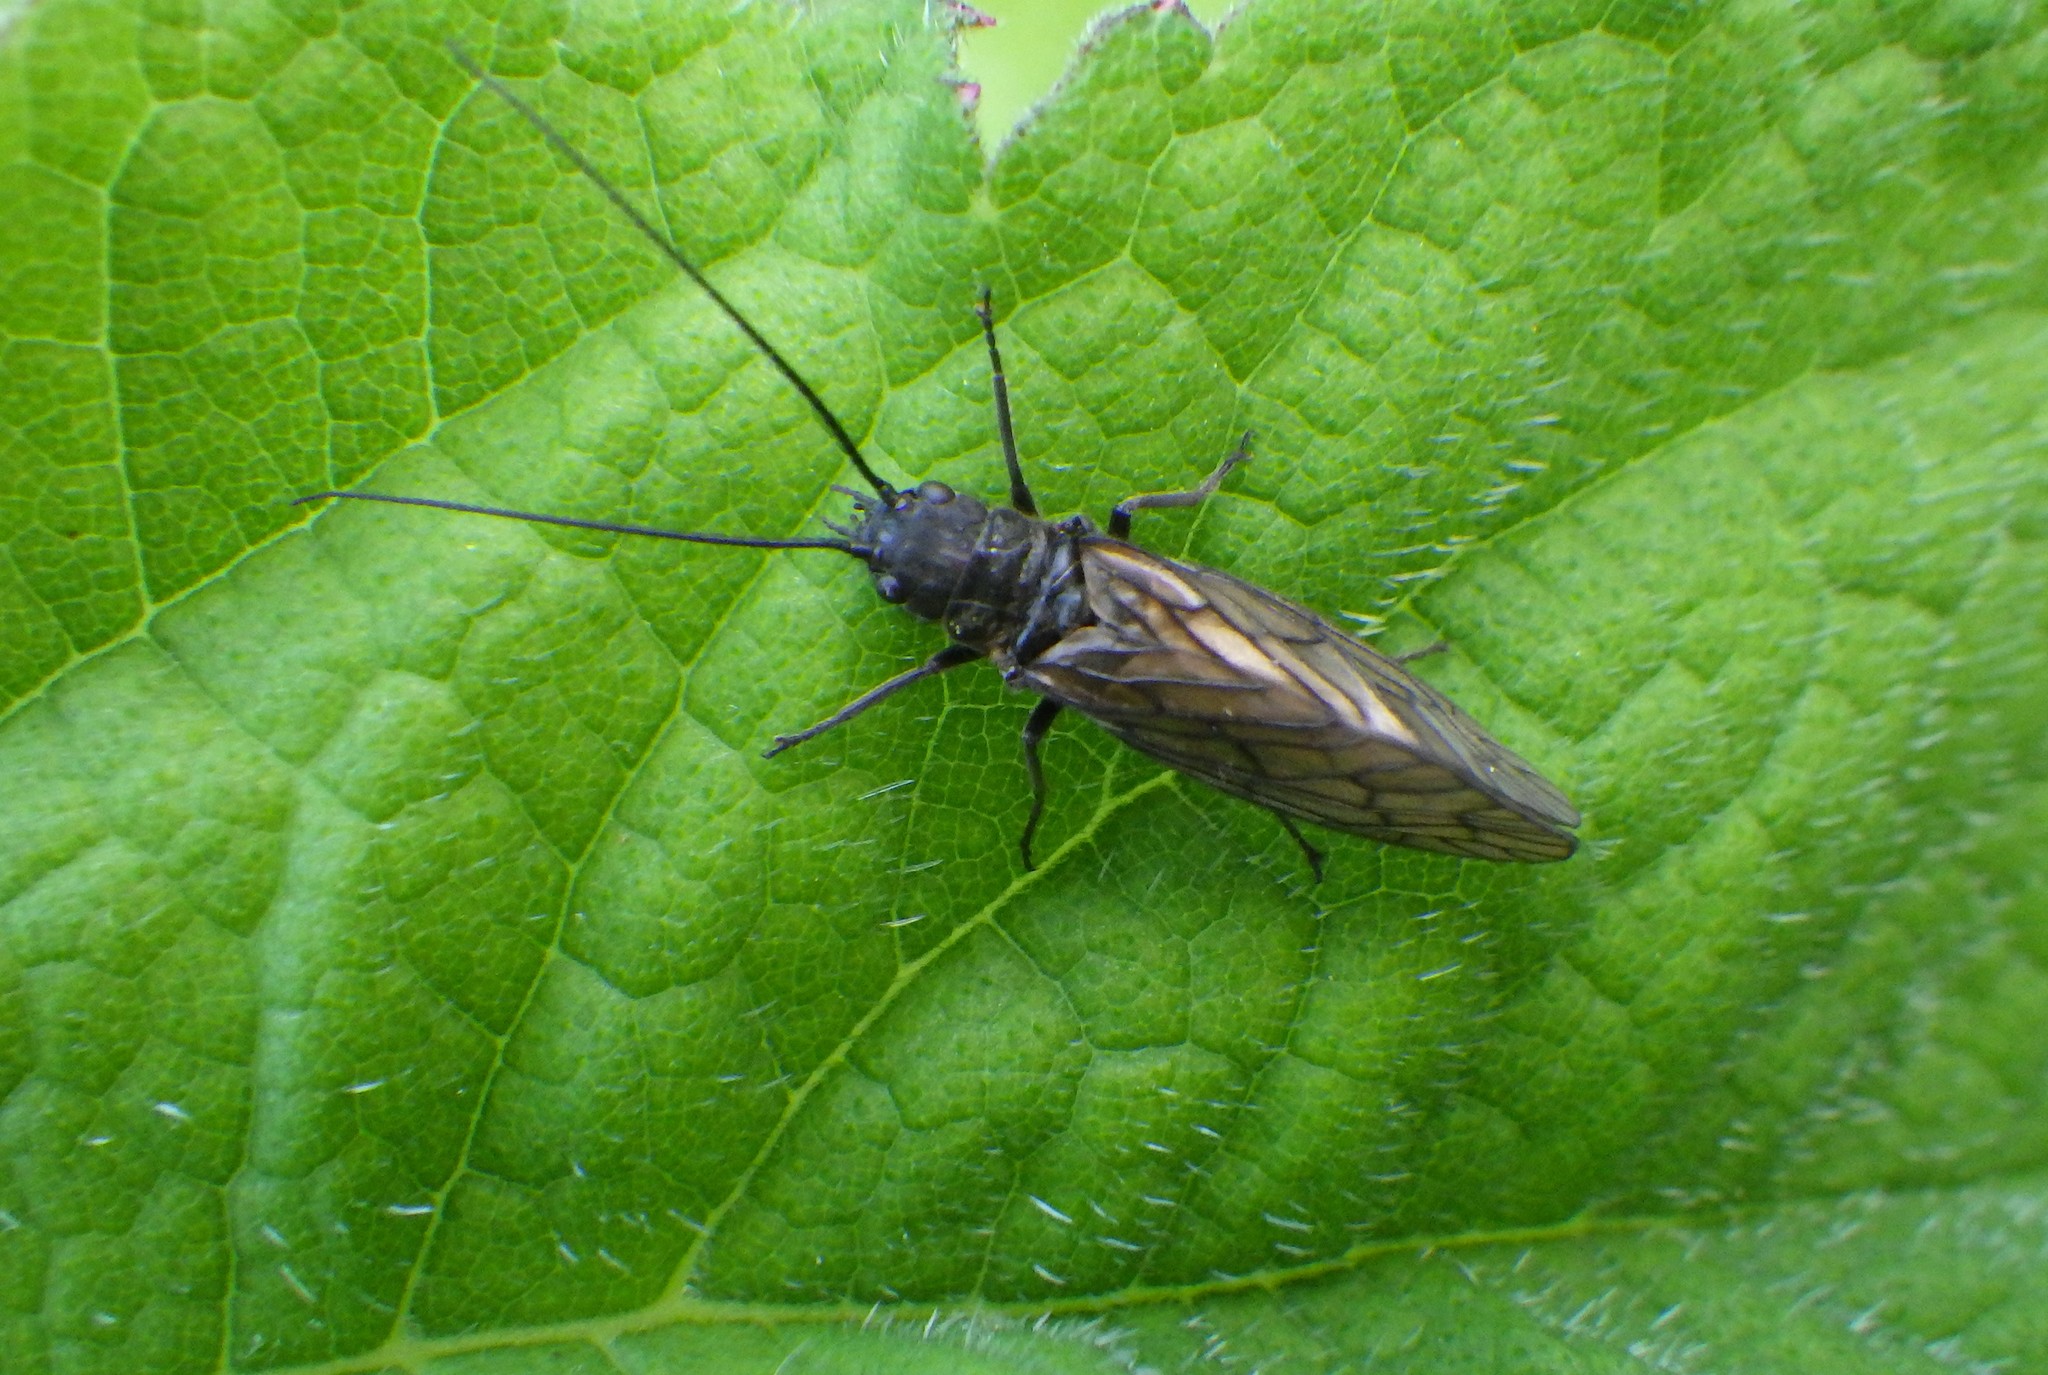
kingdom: Animalia
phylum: Arthropoda
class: Insecta
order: Megaloptera
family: Sialidae
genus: Sialis
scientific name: Sialis
